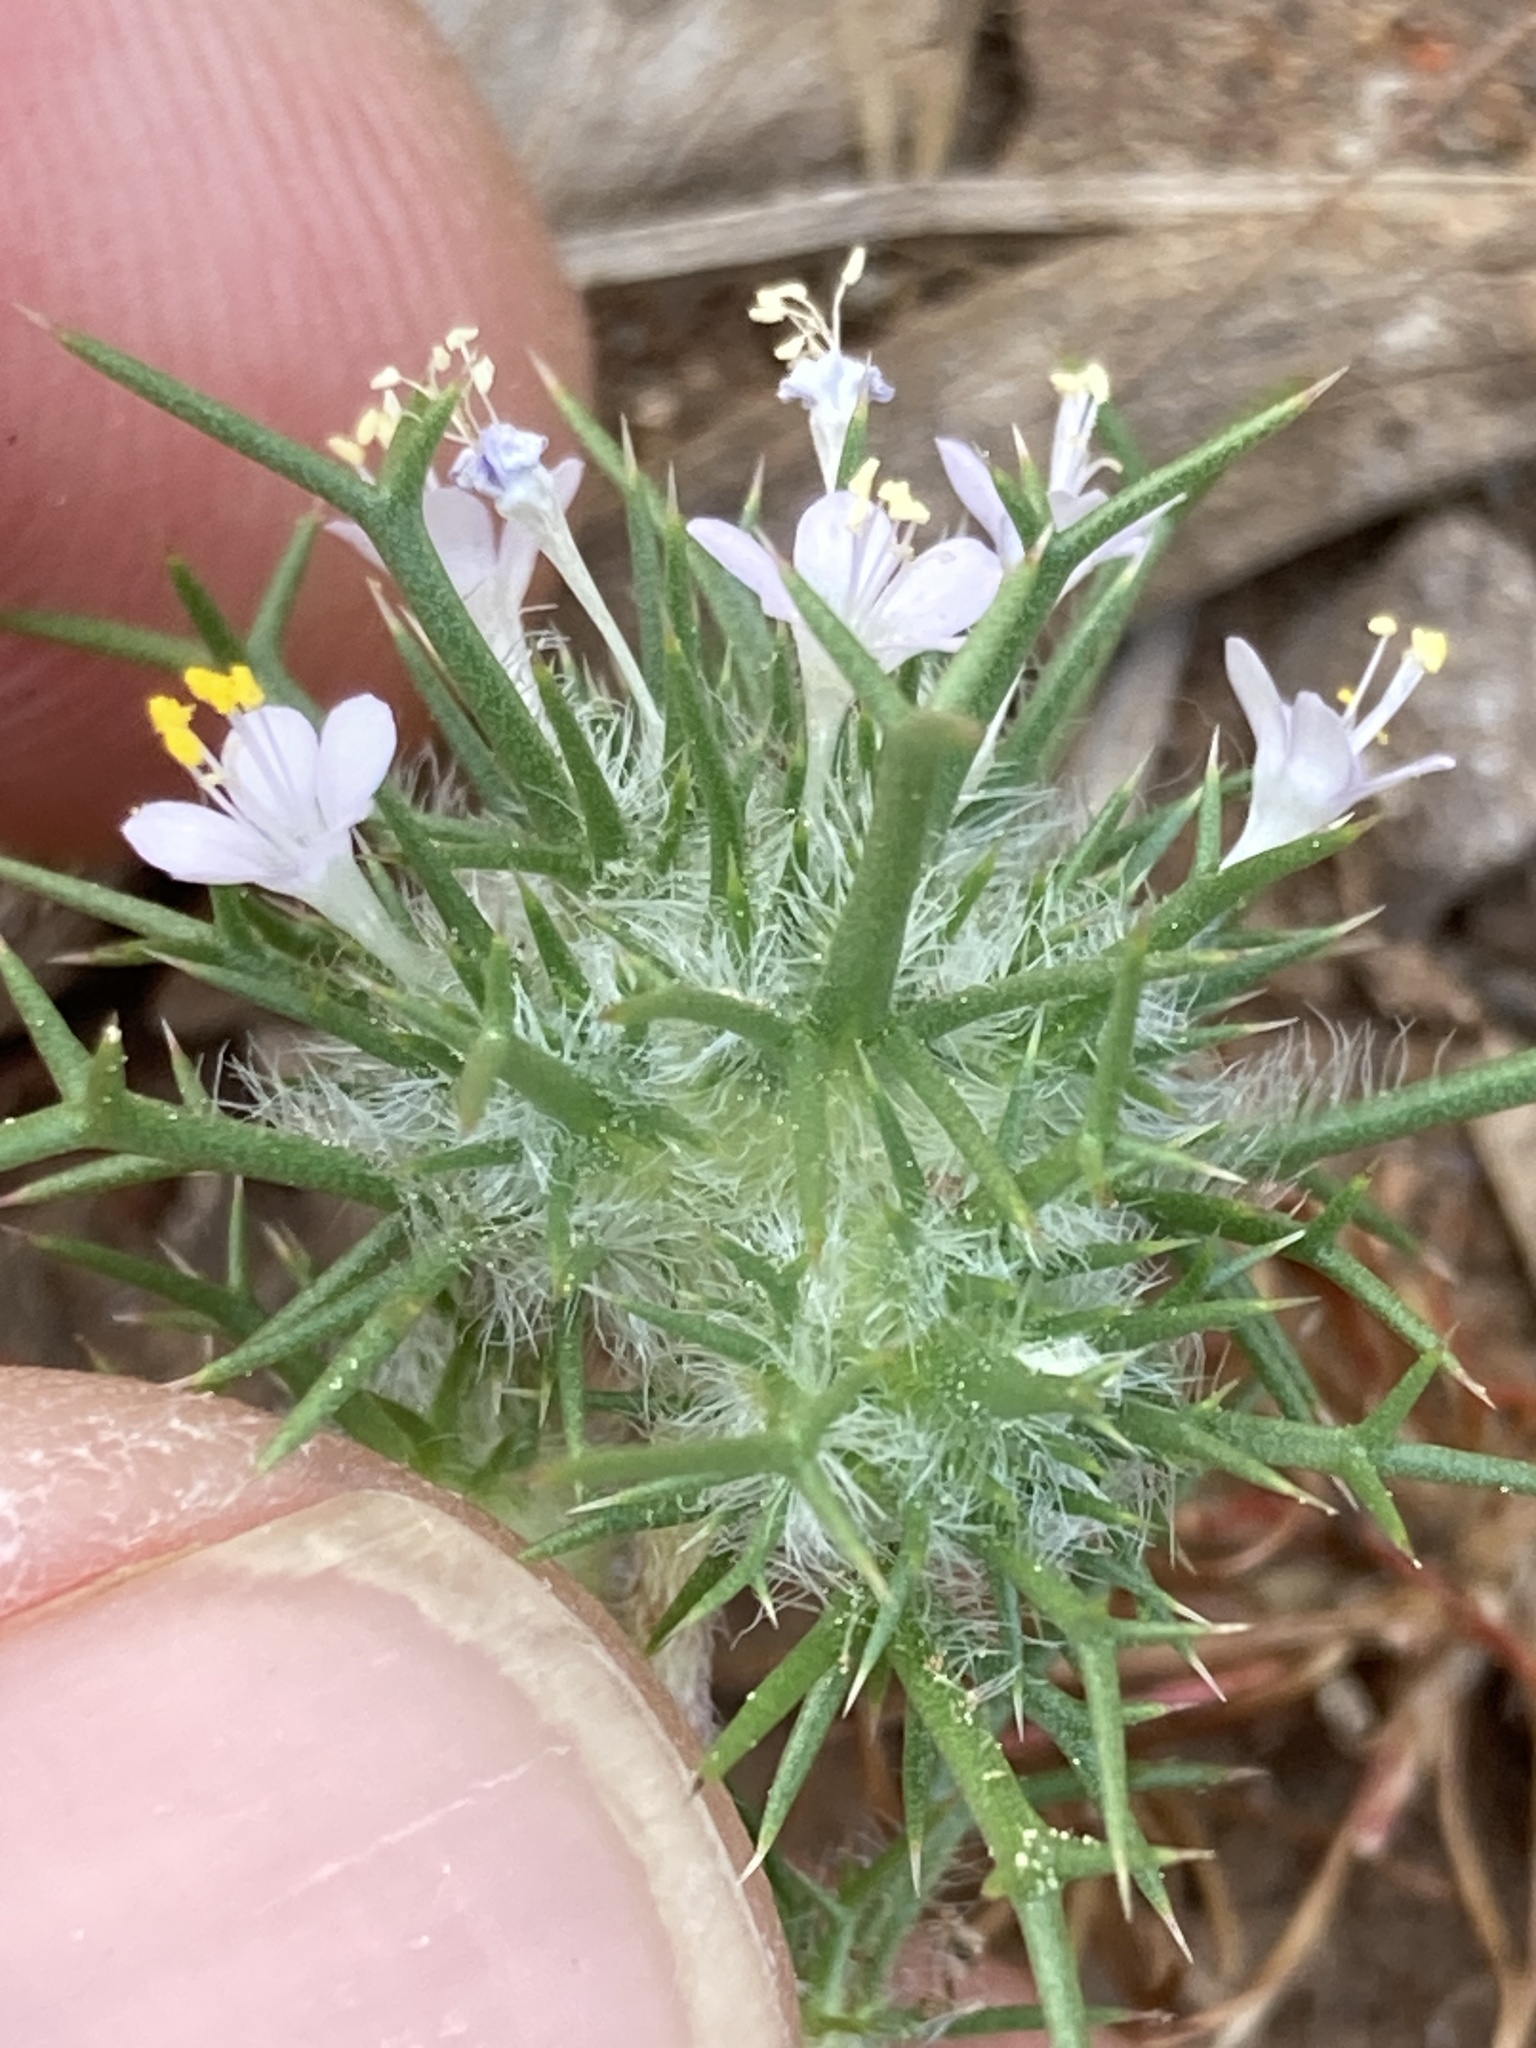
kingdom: Plantae
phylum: Tracheophyta
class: Magnoliopsida
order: Ericales
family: Polemoniaceae
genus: Navarretia
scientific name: Navarretia intertexta
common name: Needle-leaved navarretia
